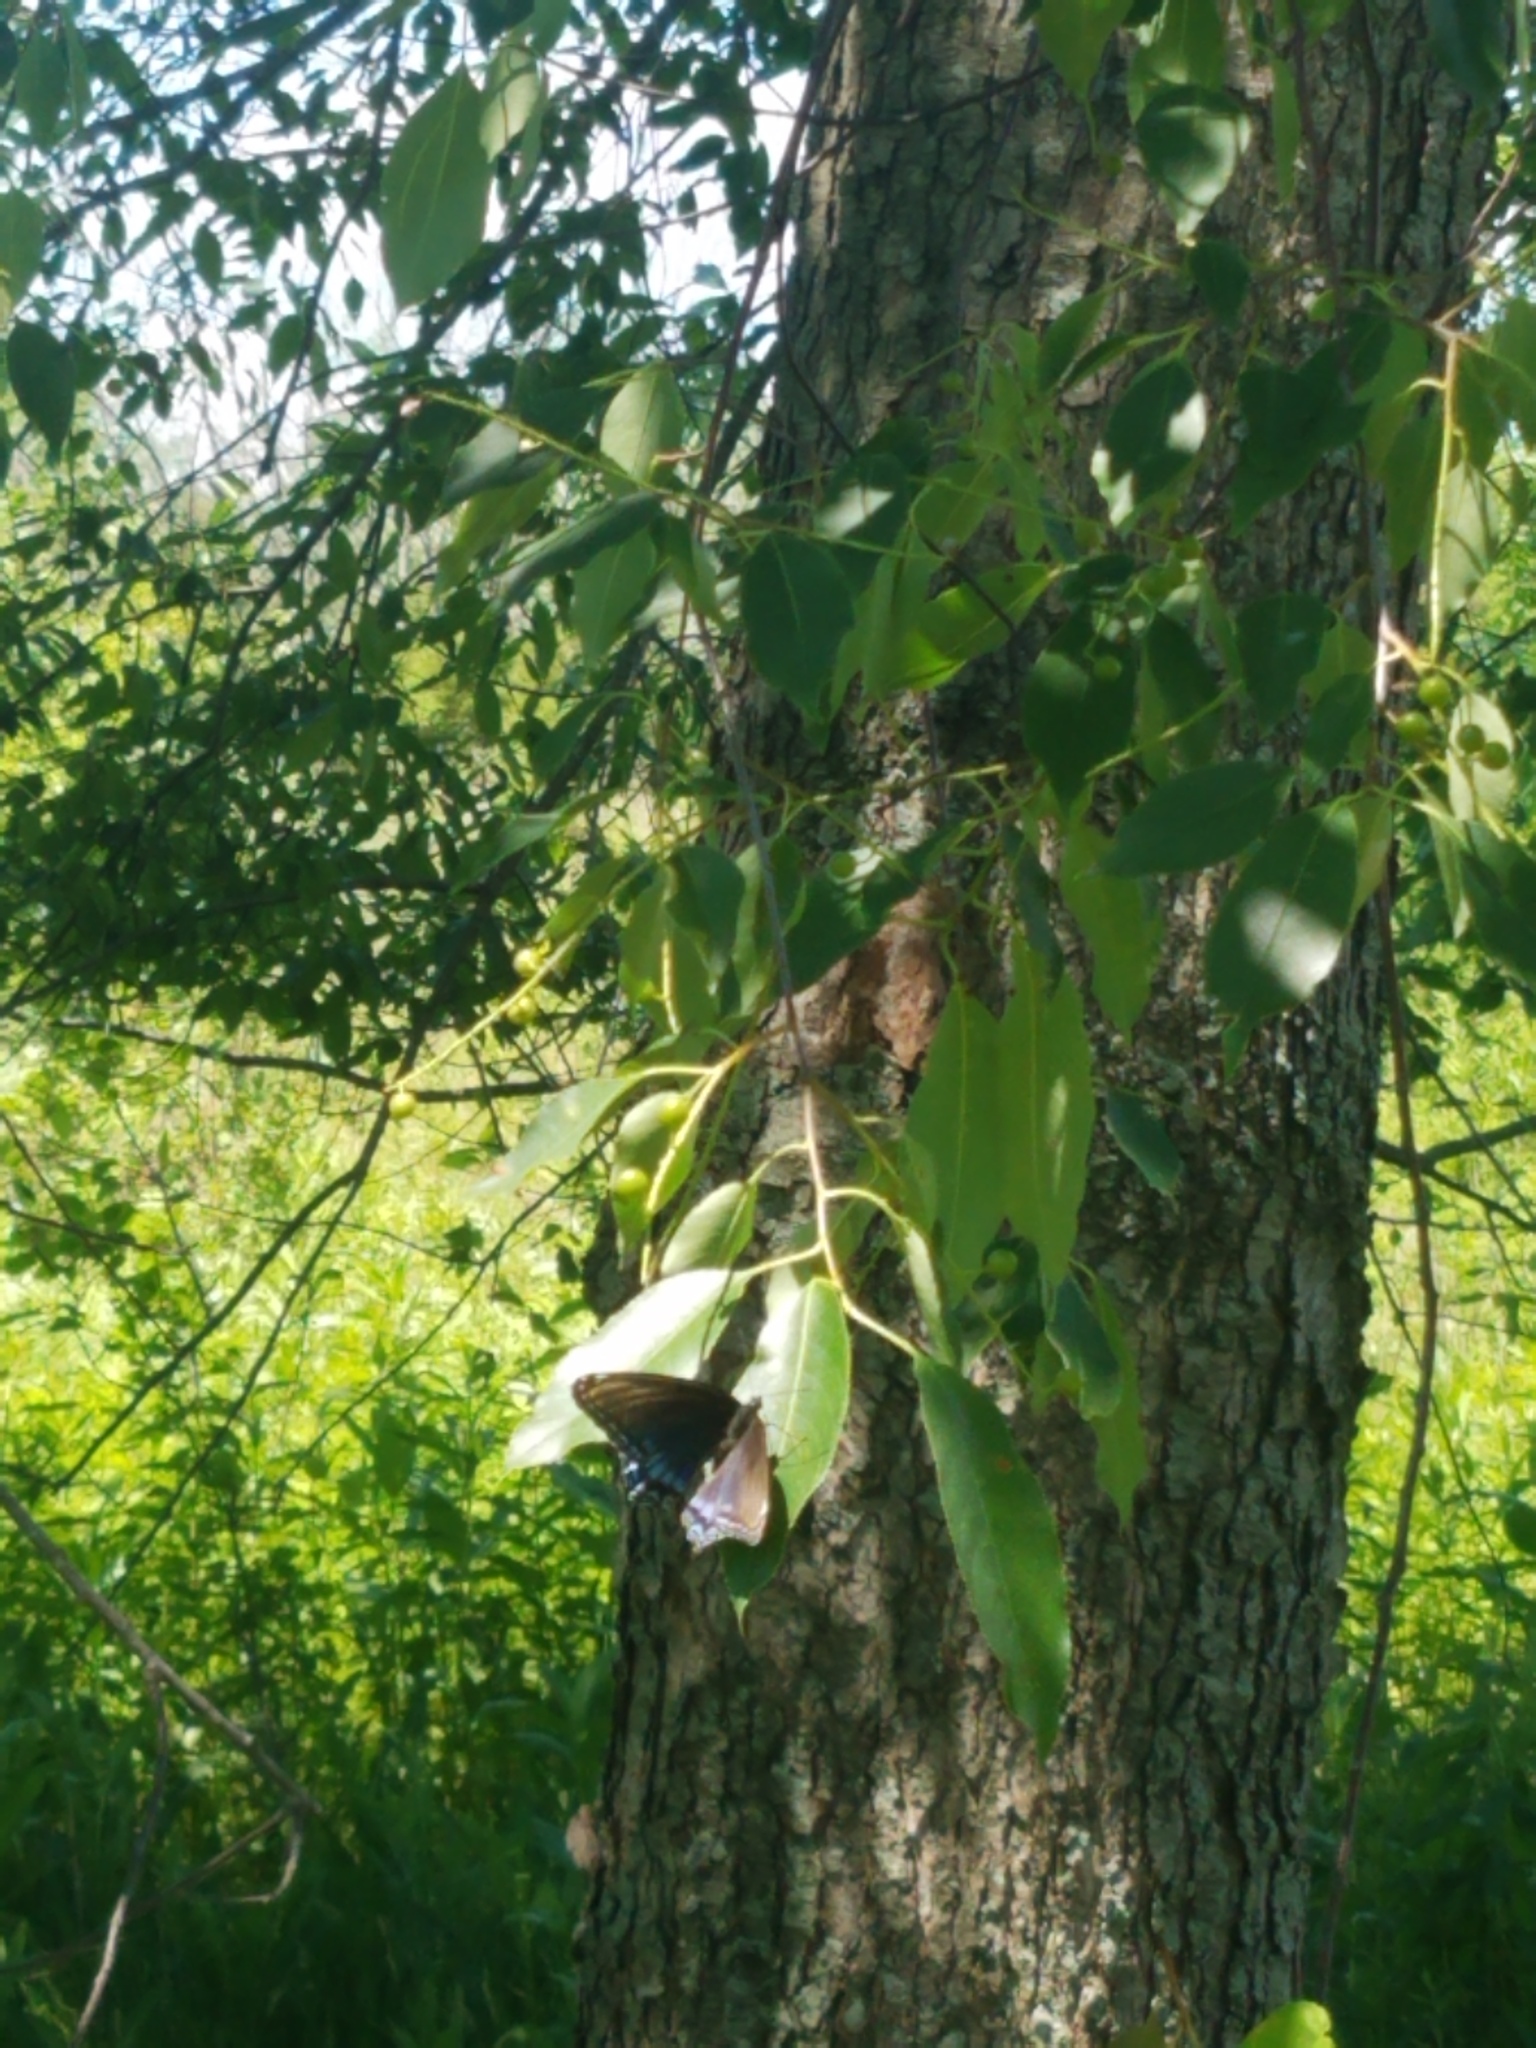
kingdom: Animalia
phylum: Arthropoda
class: Insecta
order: Lepidoptera
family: Nymphalidae
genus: Limenitis
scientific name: Limenitis astyanax
